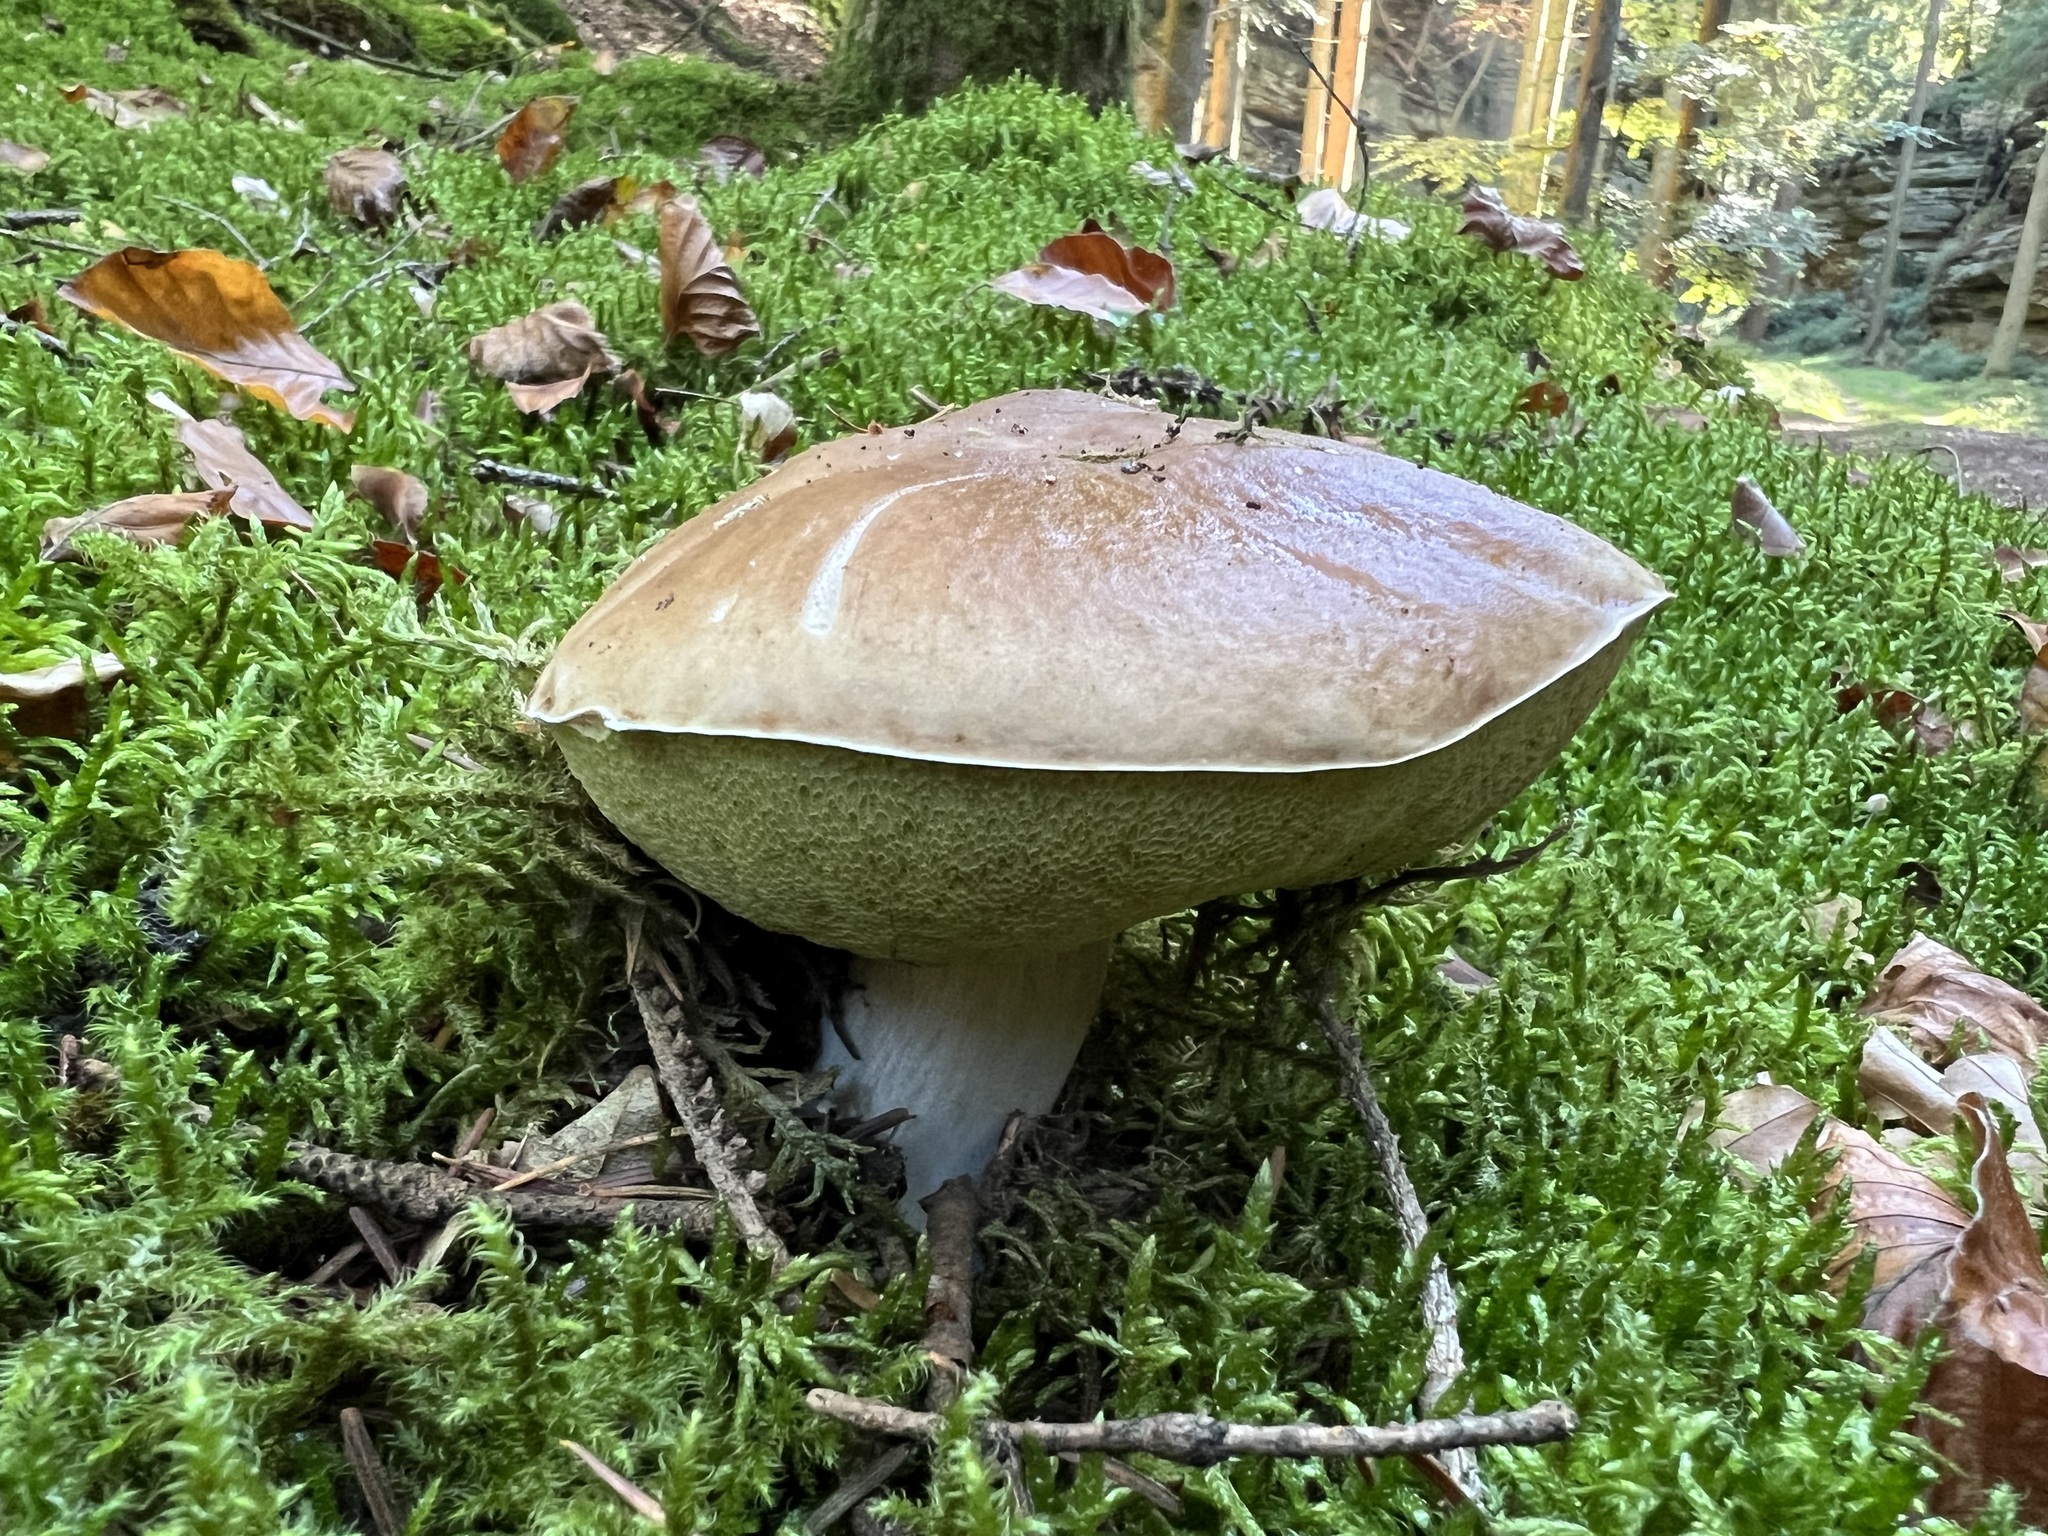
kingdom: Fungi
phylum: Basidiomycota
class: Agaricomycetes
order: Boletales
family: Boletaceae
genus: Boletus
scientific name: Boletus edulis
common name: Cep
